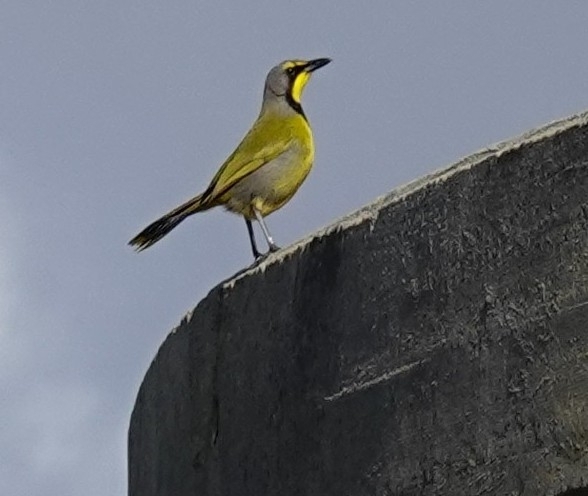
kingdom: Animalia
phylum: Chordata
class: Aves
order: Passeriformes
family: Malaconotidae
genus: Telophorus
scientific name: Telophorus zeylonus
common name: Bokmakierie
